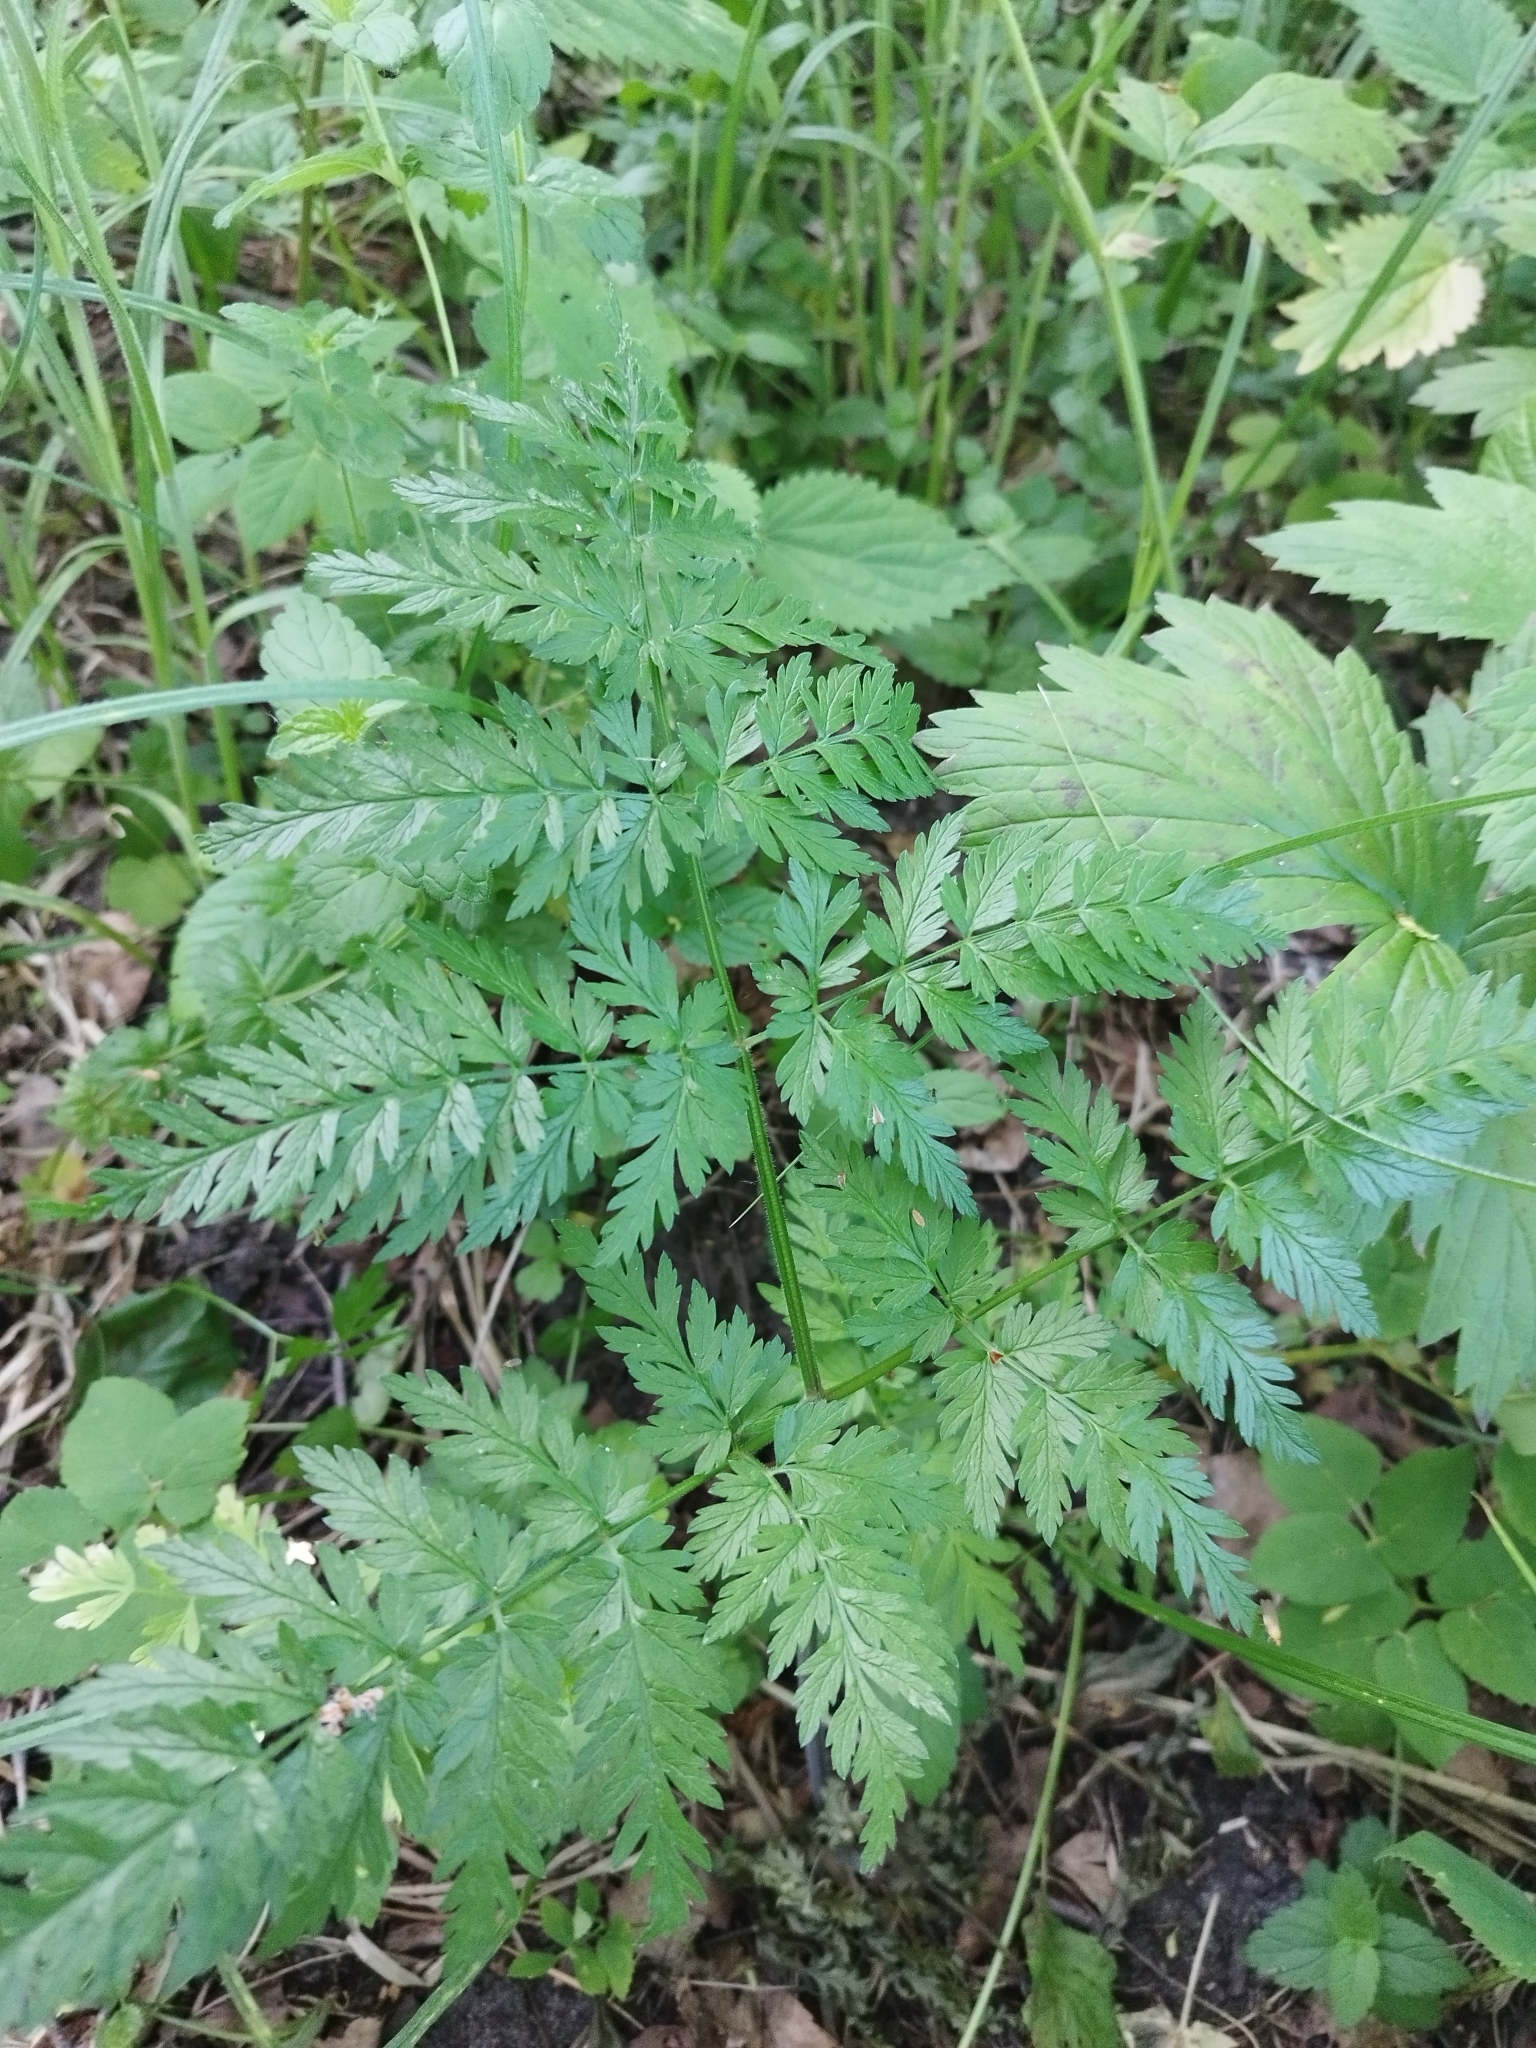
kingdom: Plantae
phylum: Tracheophyta
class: Magnoliopsida
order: Apiales
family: Apiaceae
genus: Anthriscus
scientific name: Anthriscus sylvestris
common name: Cow parsley
